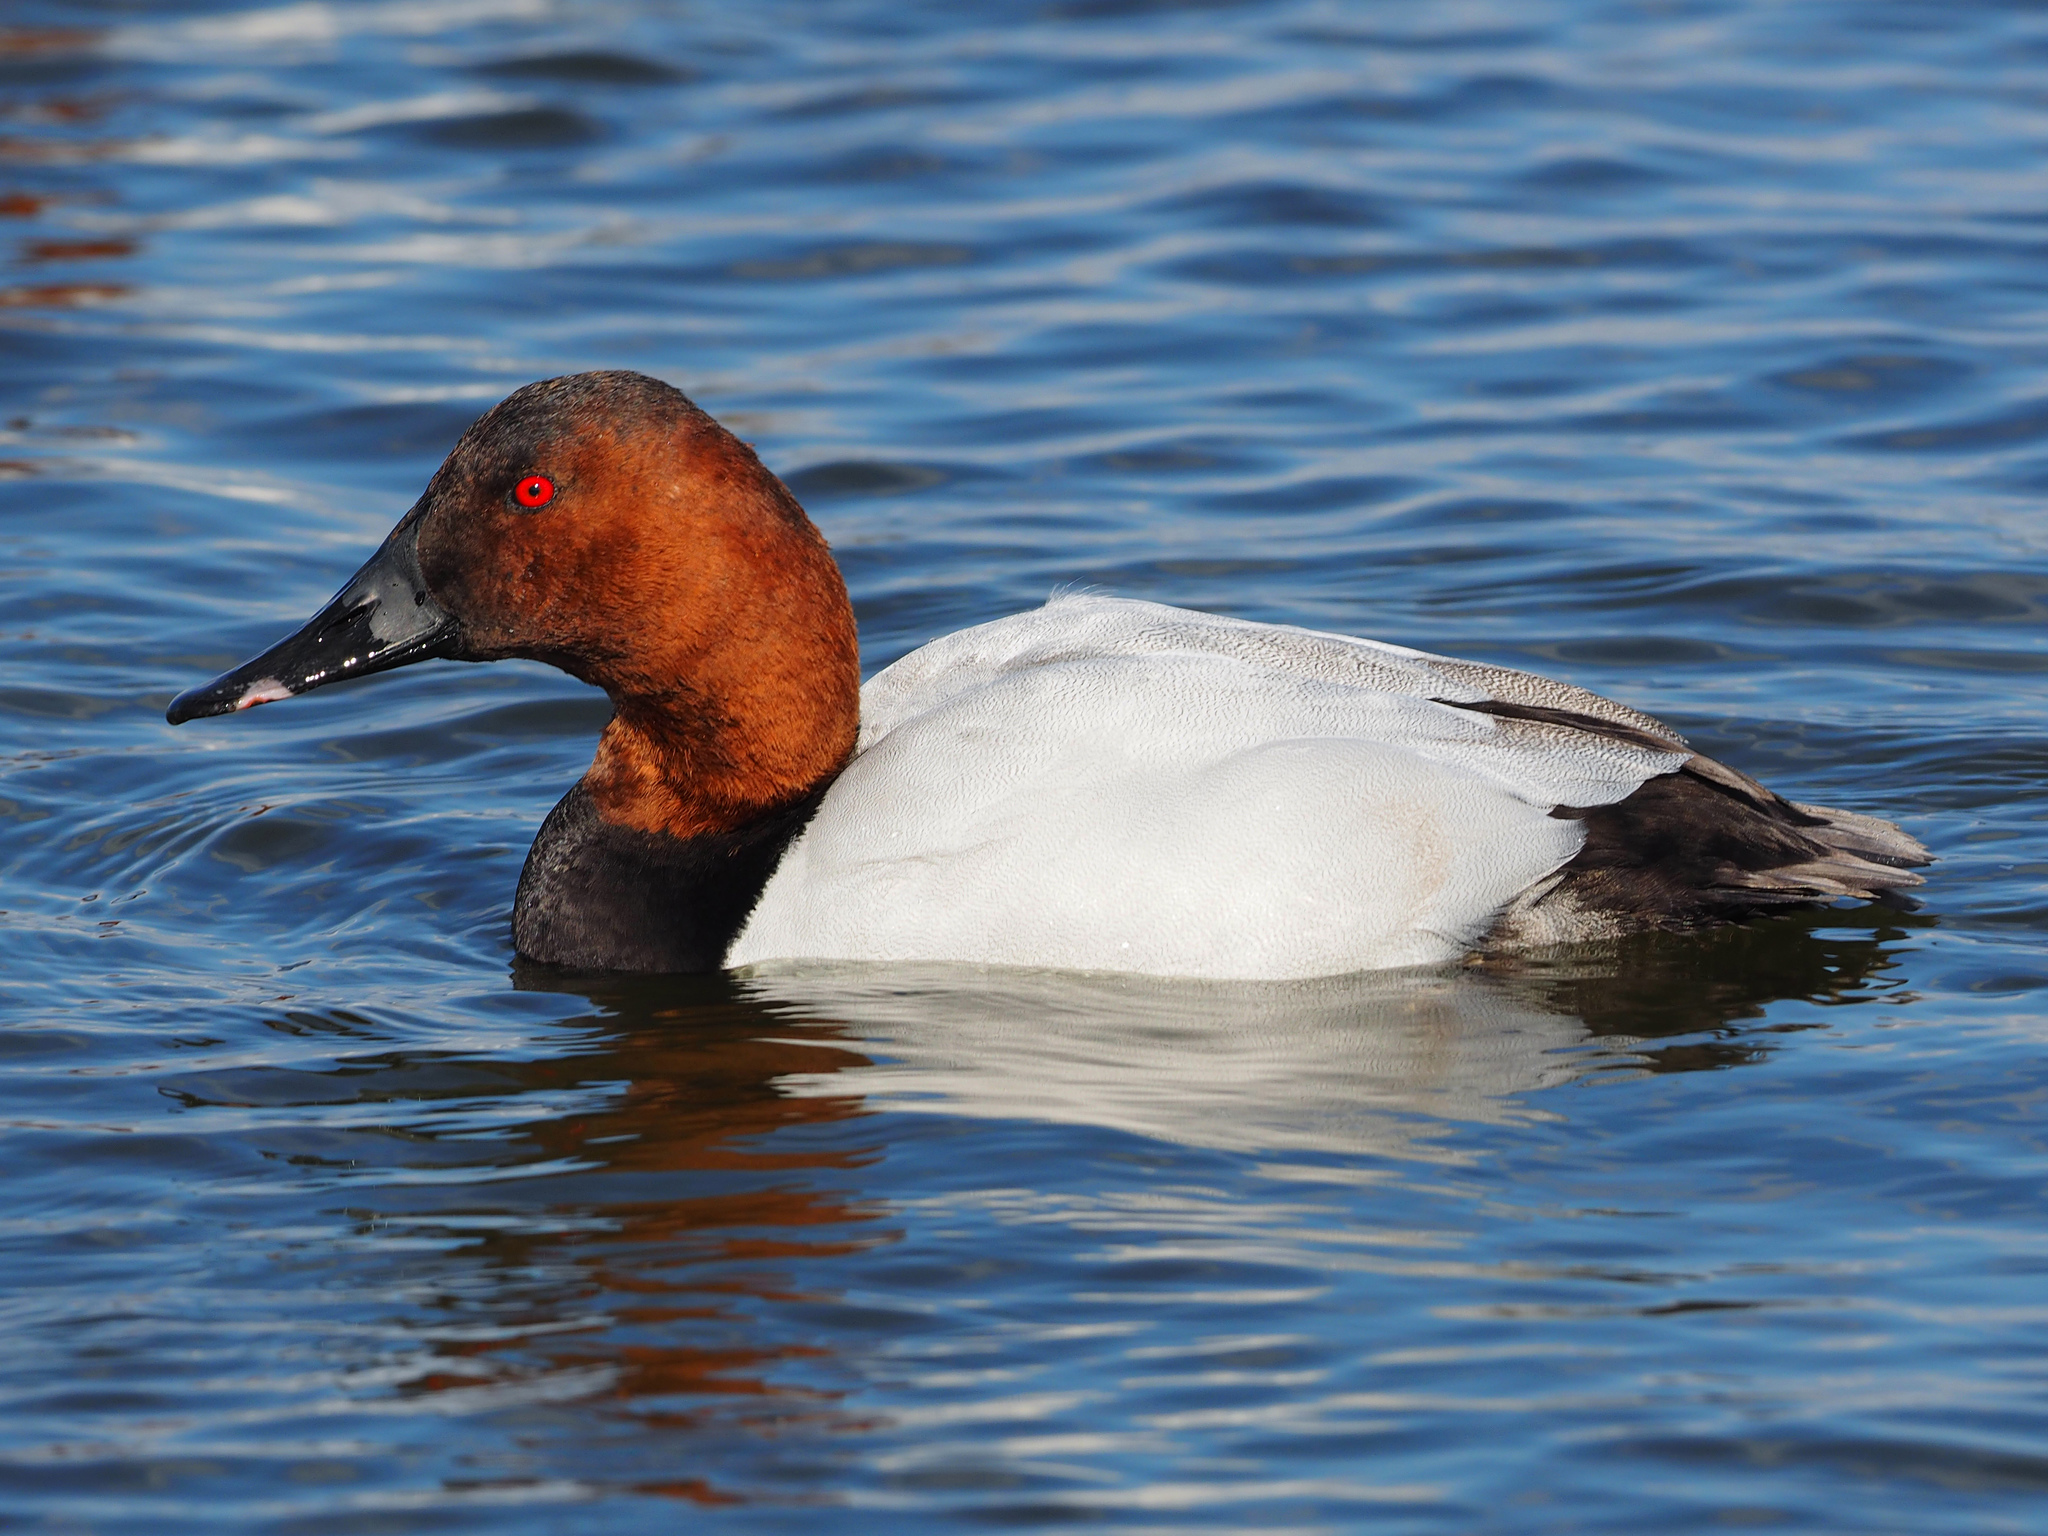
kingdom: Animalia
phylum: Chordata
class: Aves
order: Anseriformes
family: Anatidae
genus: Aythya
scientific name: Aythya valisineria
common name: Canvasback
